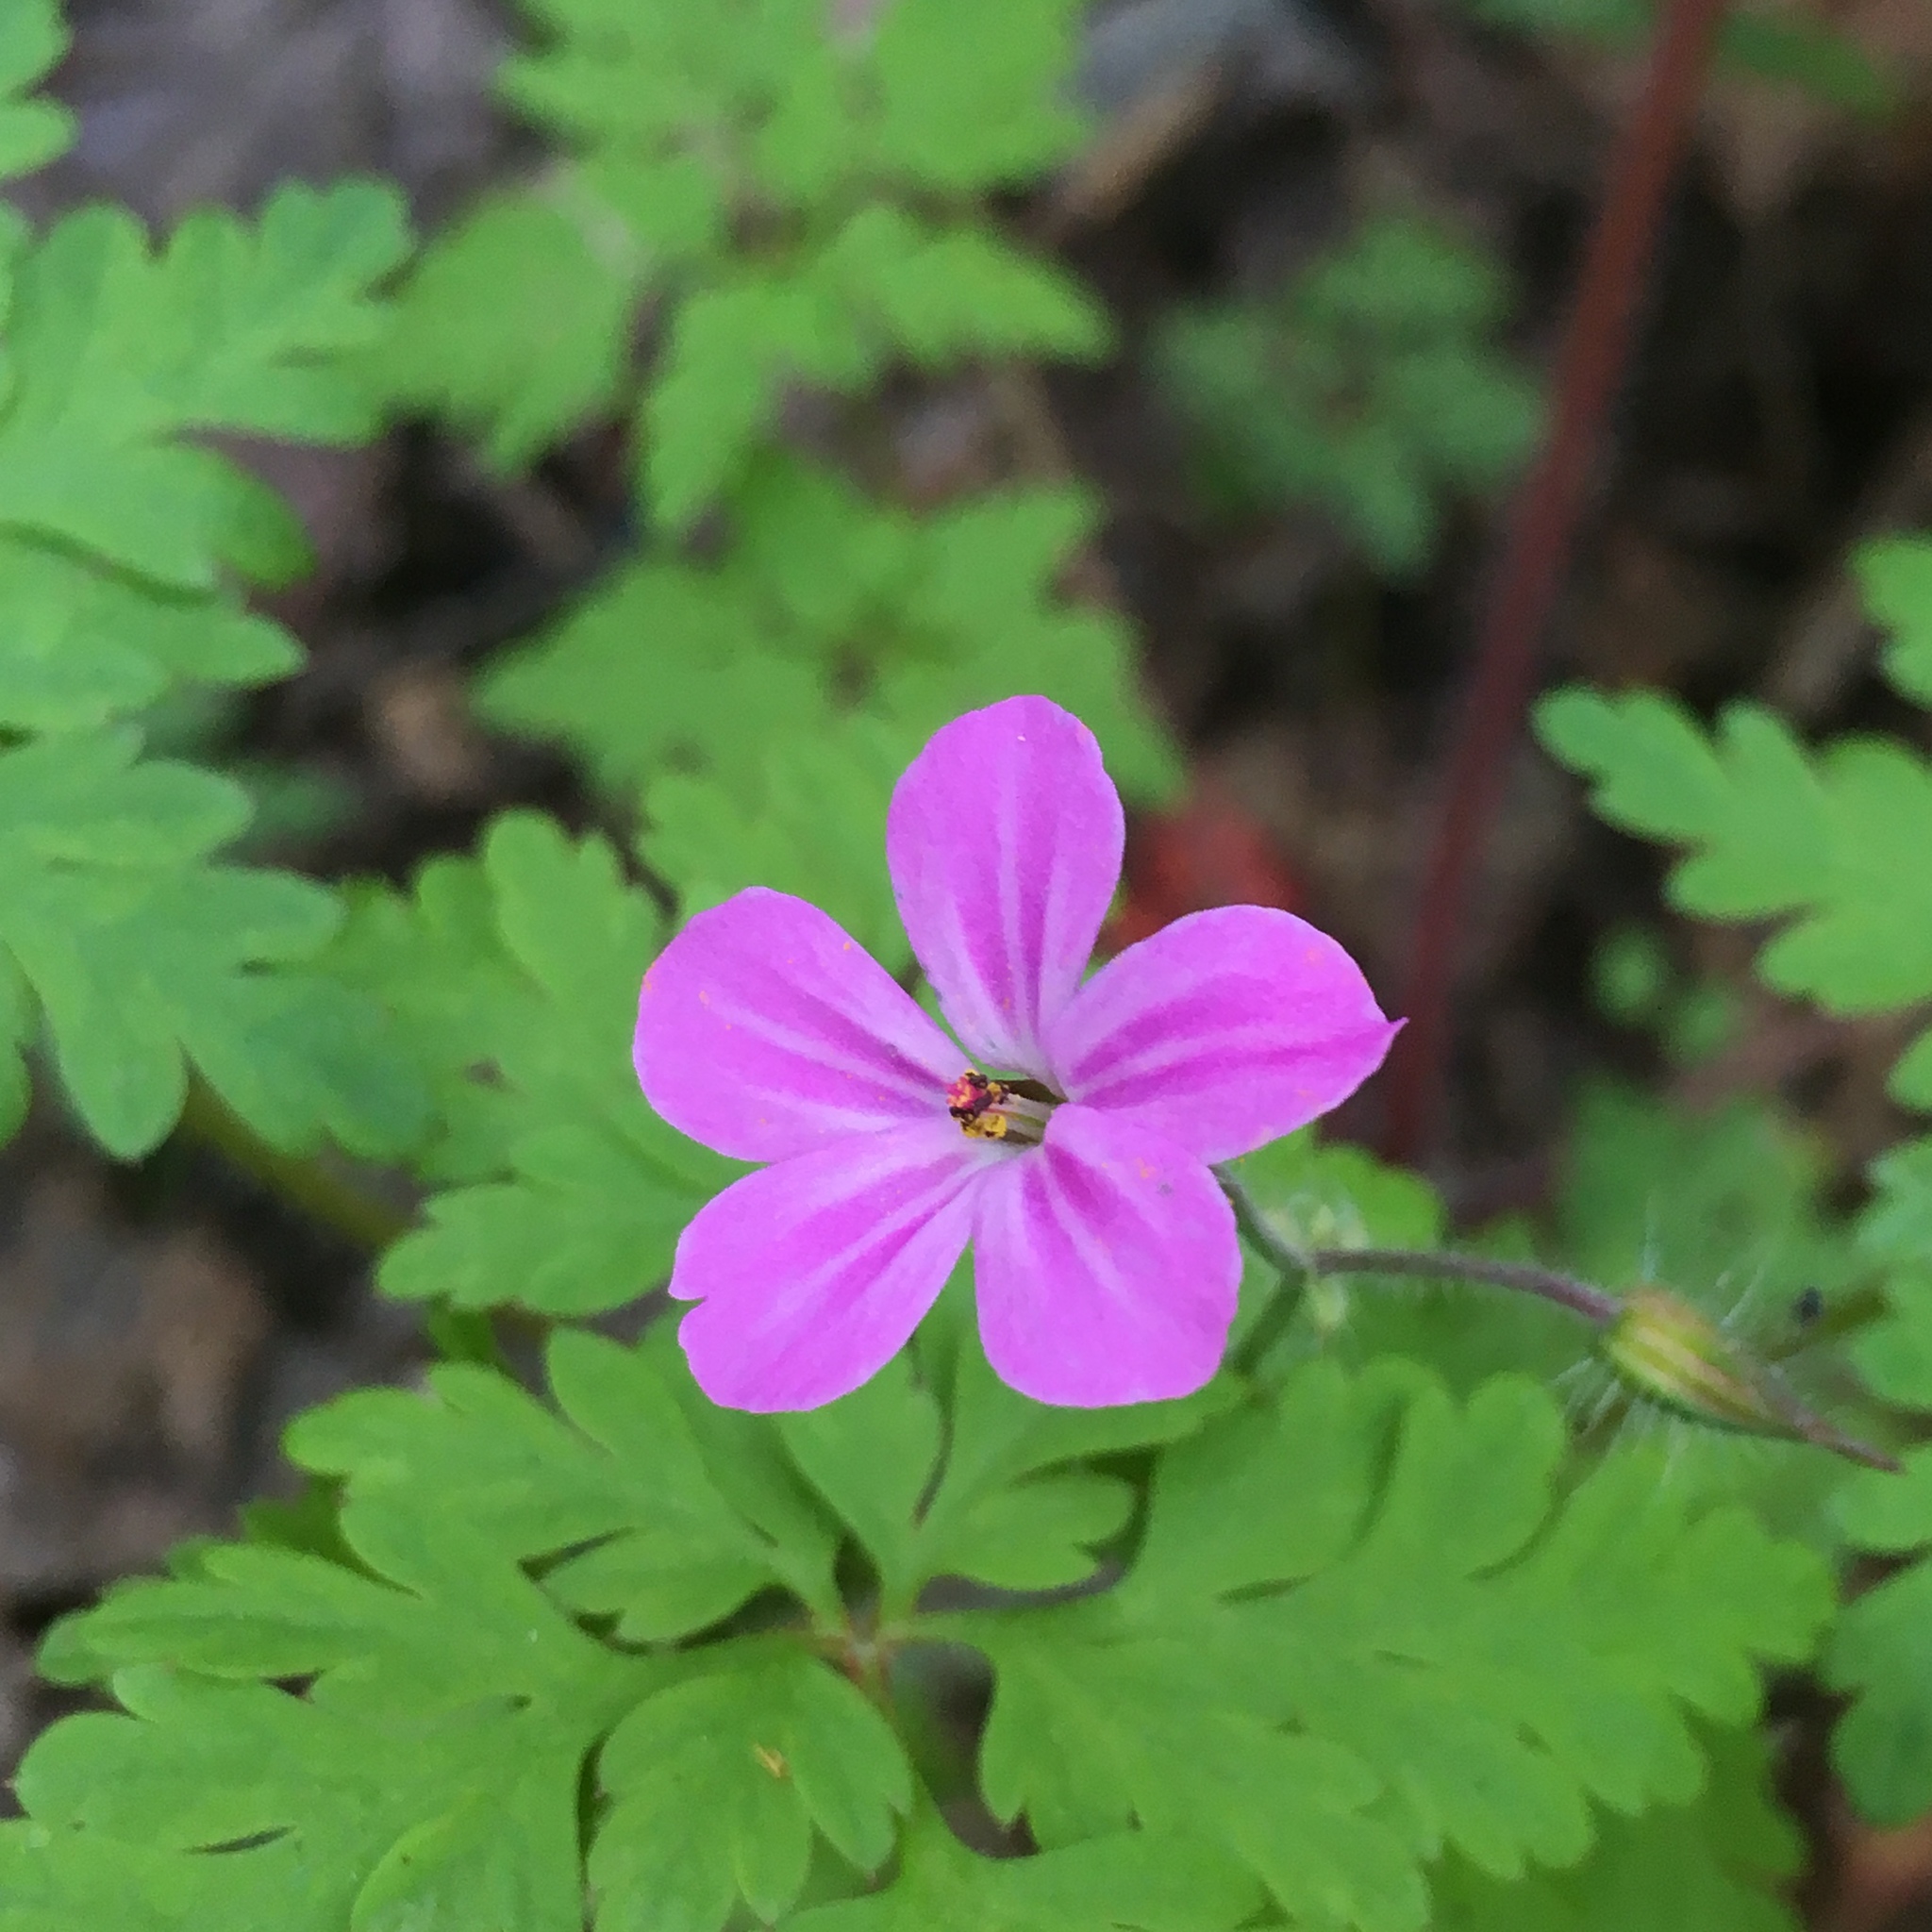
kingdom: Plantae
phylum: Tracheophyta
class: Magnoliopsida
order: Geraniales
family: Geraniaceae
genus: Geranium
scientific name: Geranium robertianum
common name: Herb-robert
